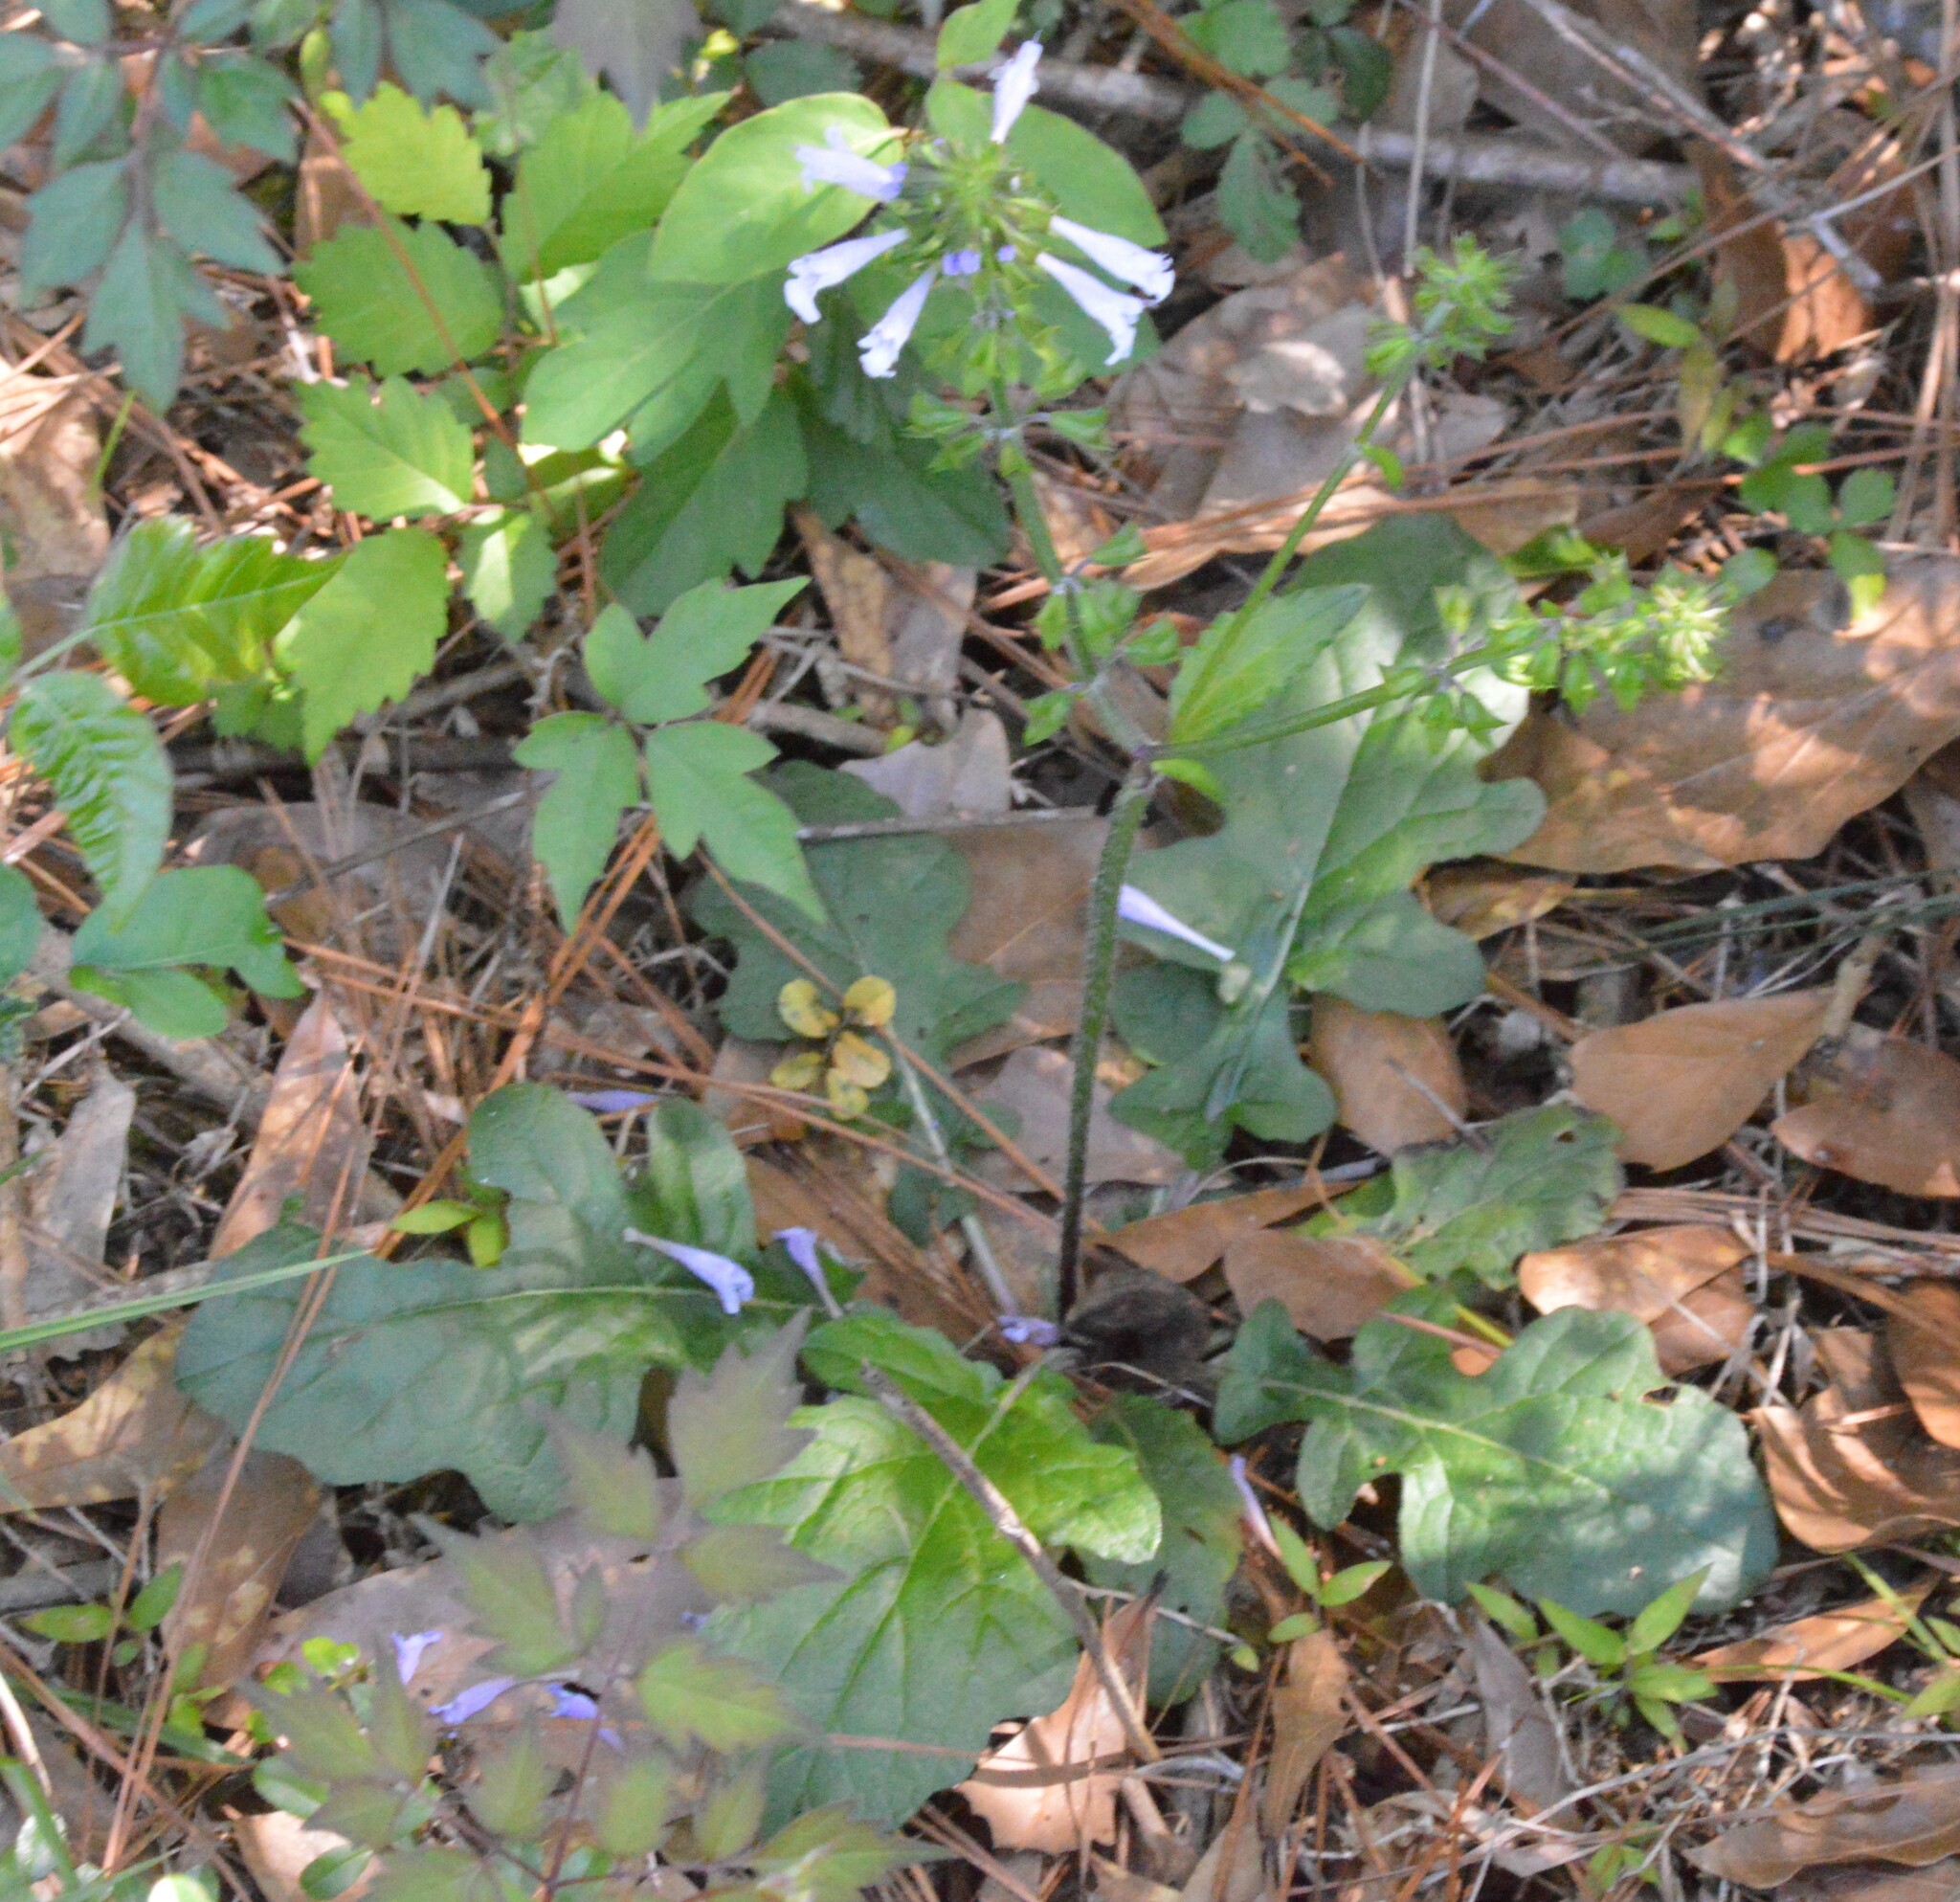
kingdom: Plantae
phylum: Tracheophyta
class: Magnoliopsida
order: Lamiales
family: Lamiaceae
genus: Salvia
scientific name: Salvia lyrata
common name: Cancerweed
